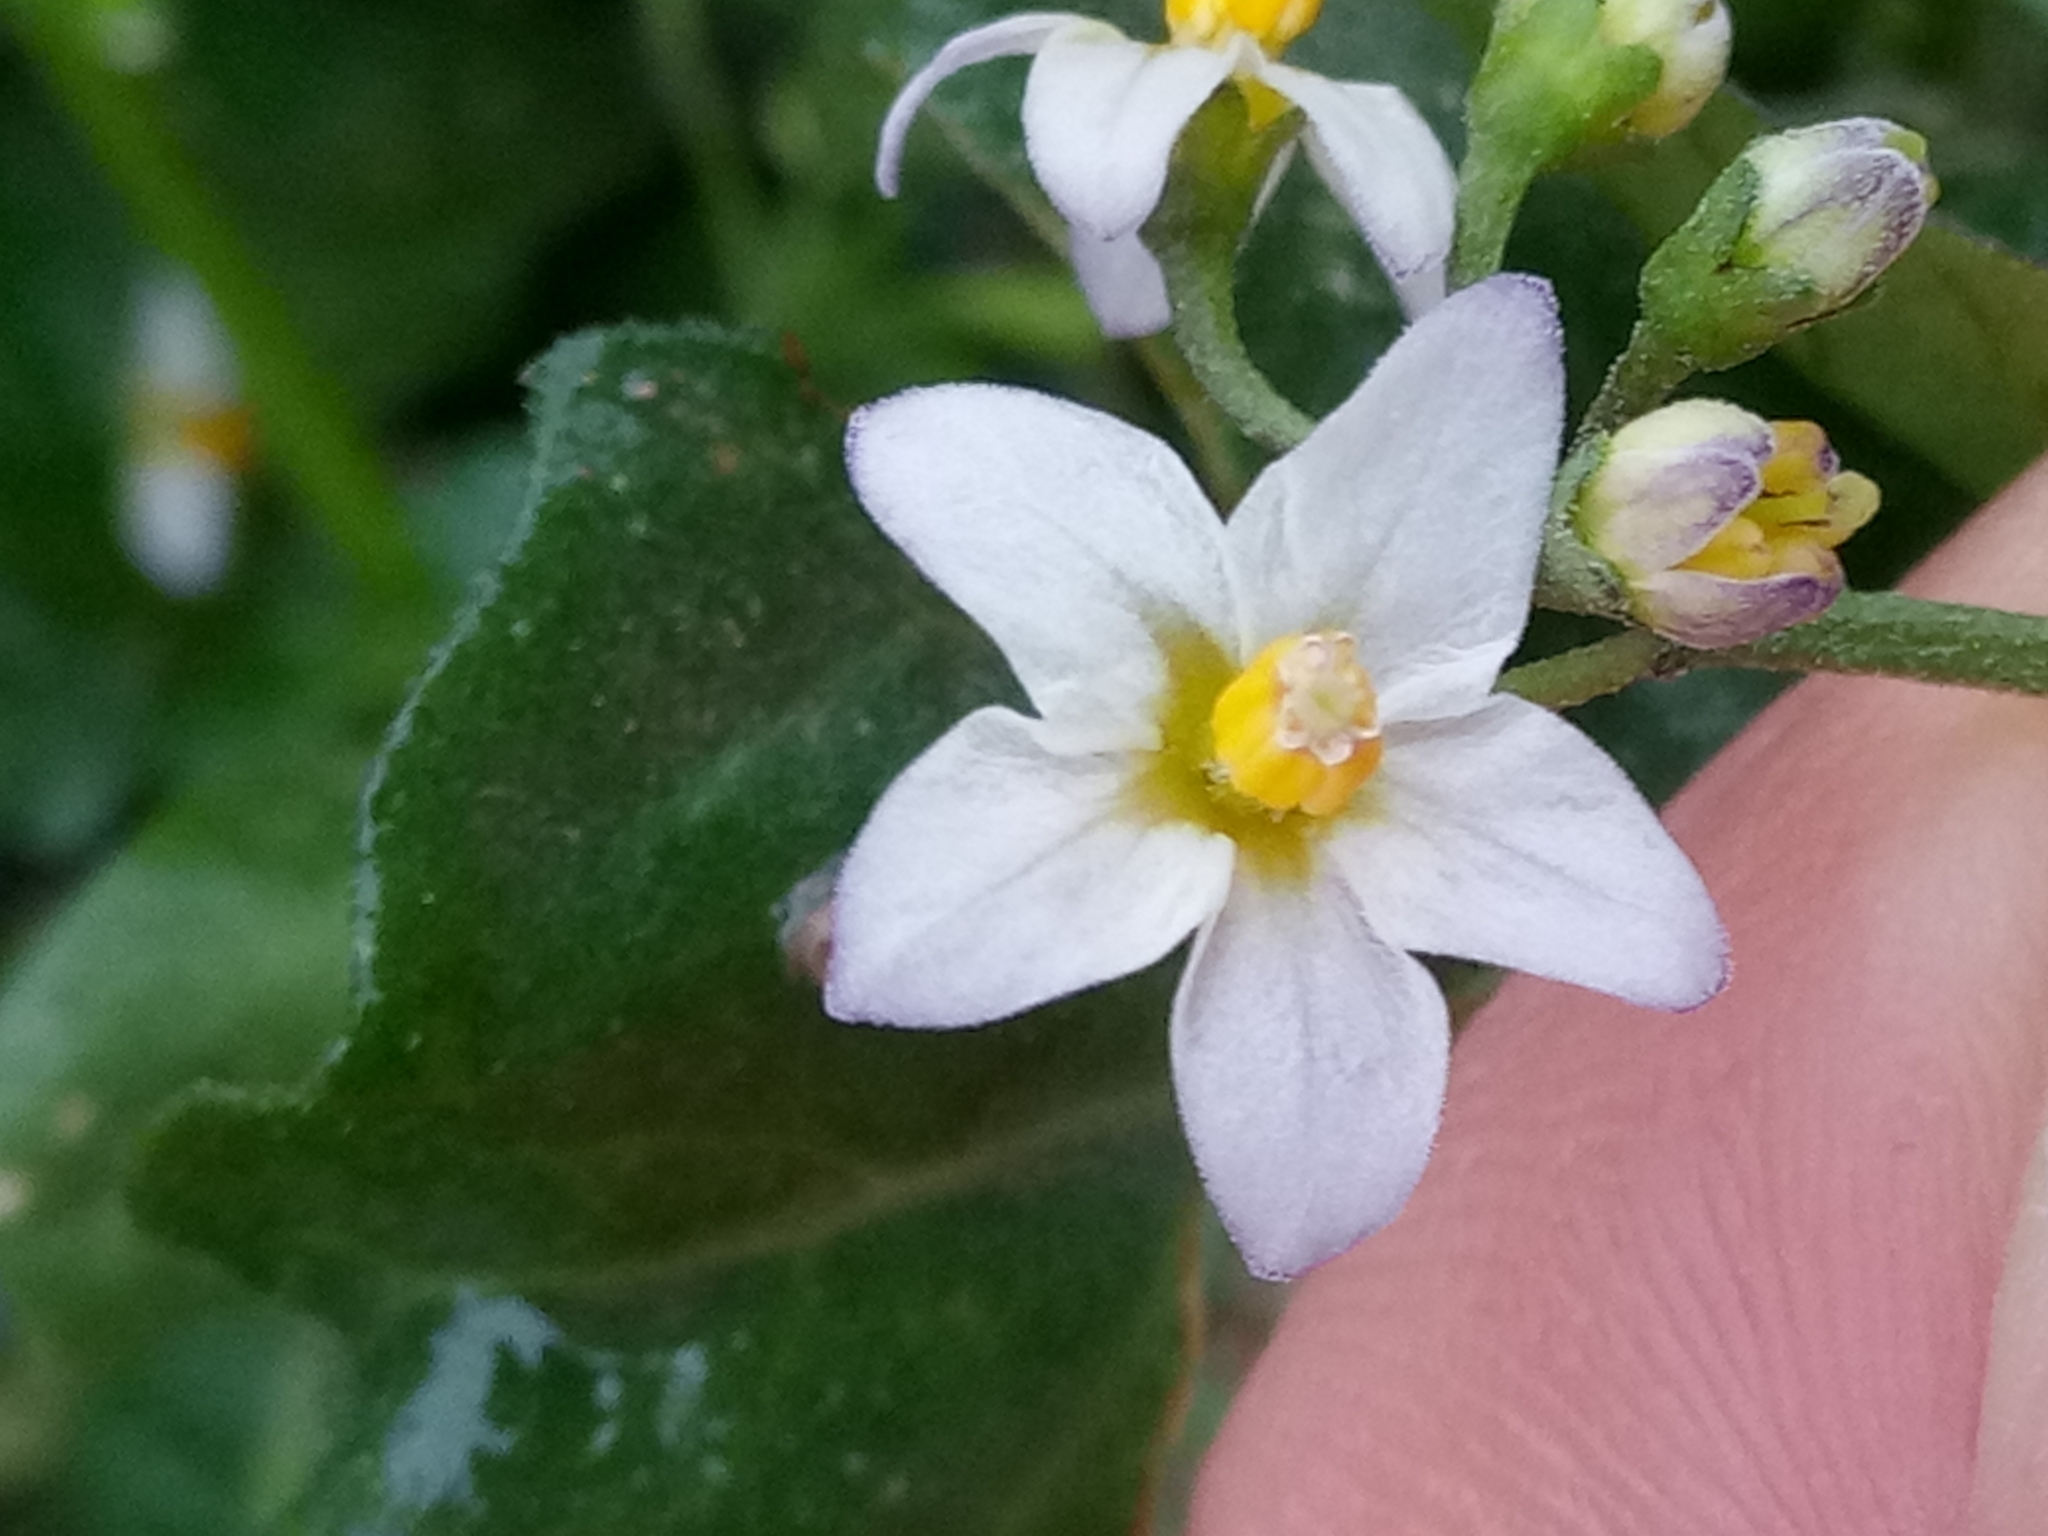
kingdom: Plantae
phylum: Tracheophyta
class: Magnoliopsida
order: Solanales
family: Solanaceae
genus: Solanum
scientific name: Solanum nigrum
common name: Black nightshade
